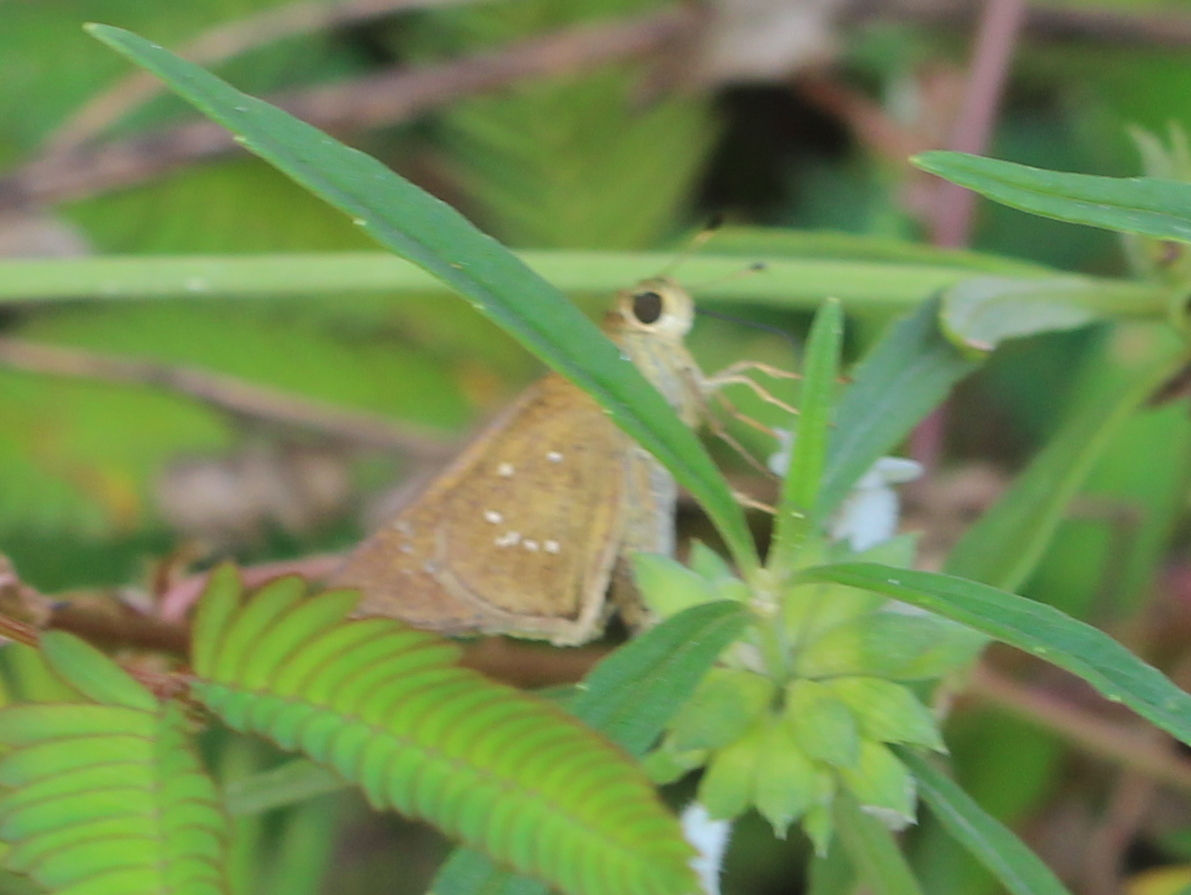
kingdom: Animalia
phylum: Arthropoda
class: Insecta
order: Lepidoptera
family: Hesperiidae
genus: Pelopidas
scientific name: Pelopidas mathias
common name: Black-branded swift
